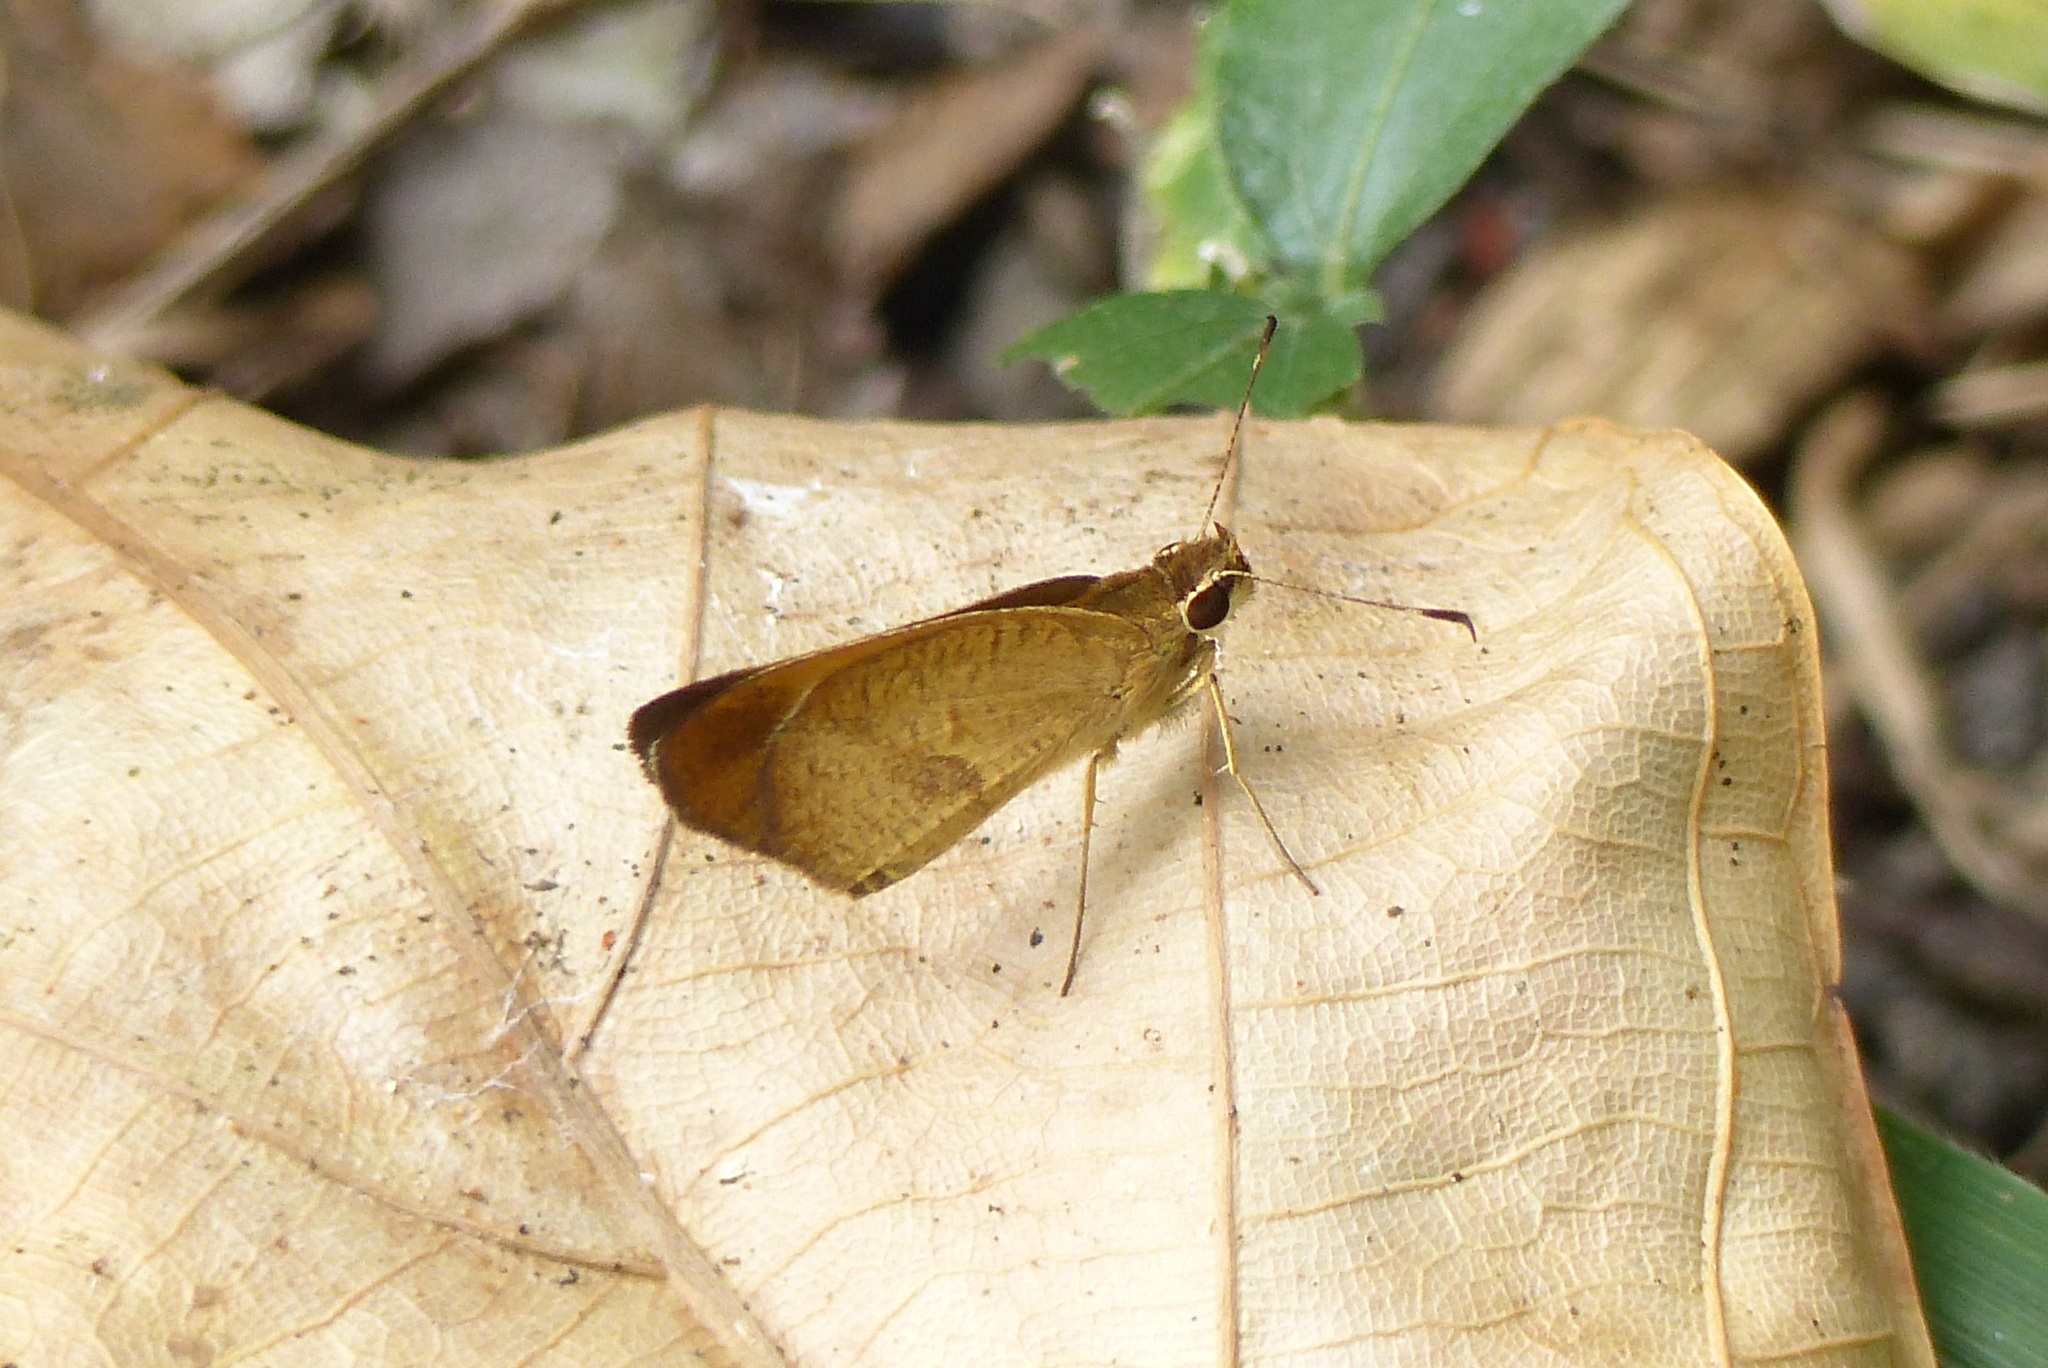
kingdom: Animalia
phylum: Arthropoda
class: Insecta
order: Lepidoptera
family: Hesperiidae
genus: Synapte
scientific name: Synapte malitiosa
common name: Caribbean faceted-skipper
